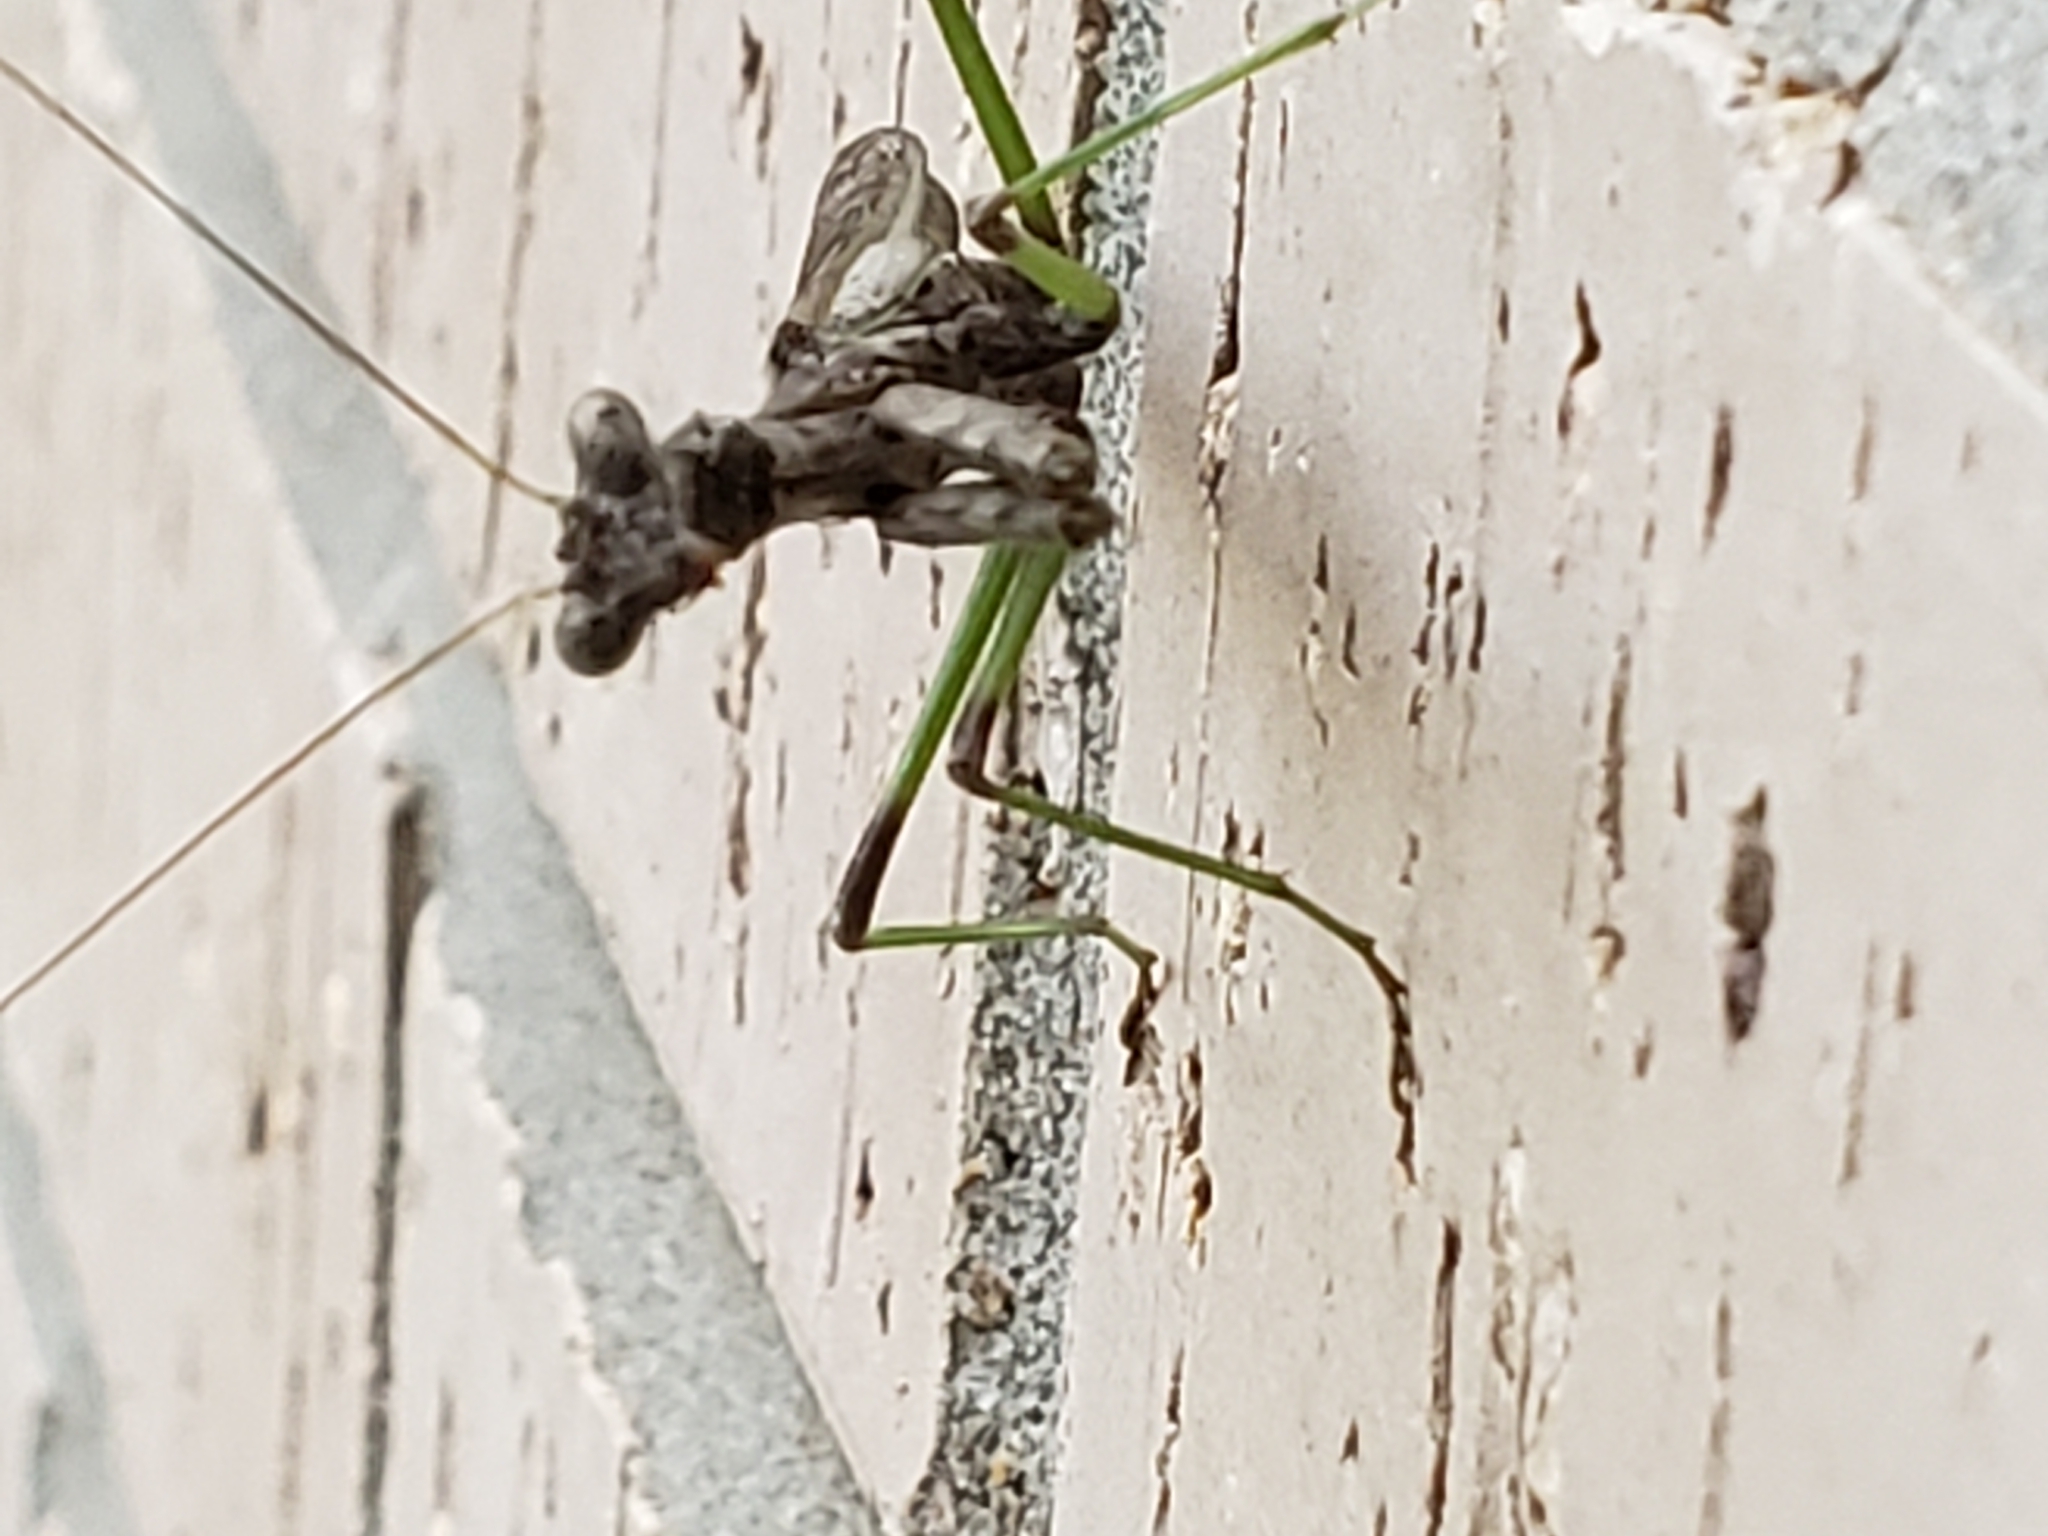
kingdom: Animalia
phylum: Arthropoda
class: Insecta
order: Mantodea
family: Mantidae
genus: Stagmomantis
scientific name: Stagmomantis carolina
